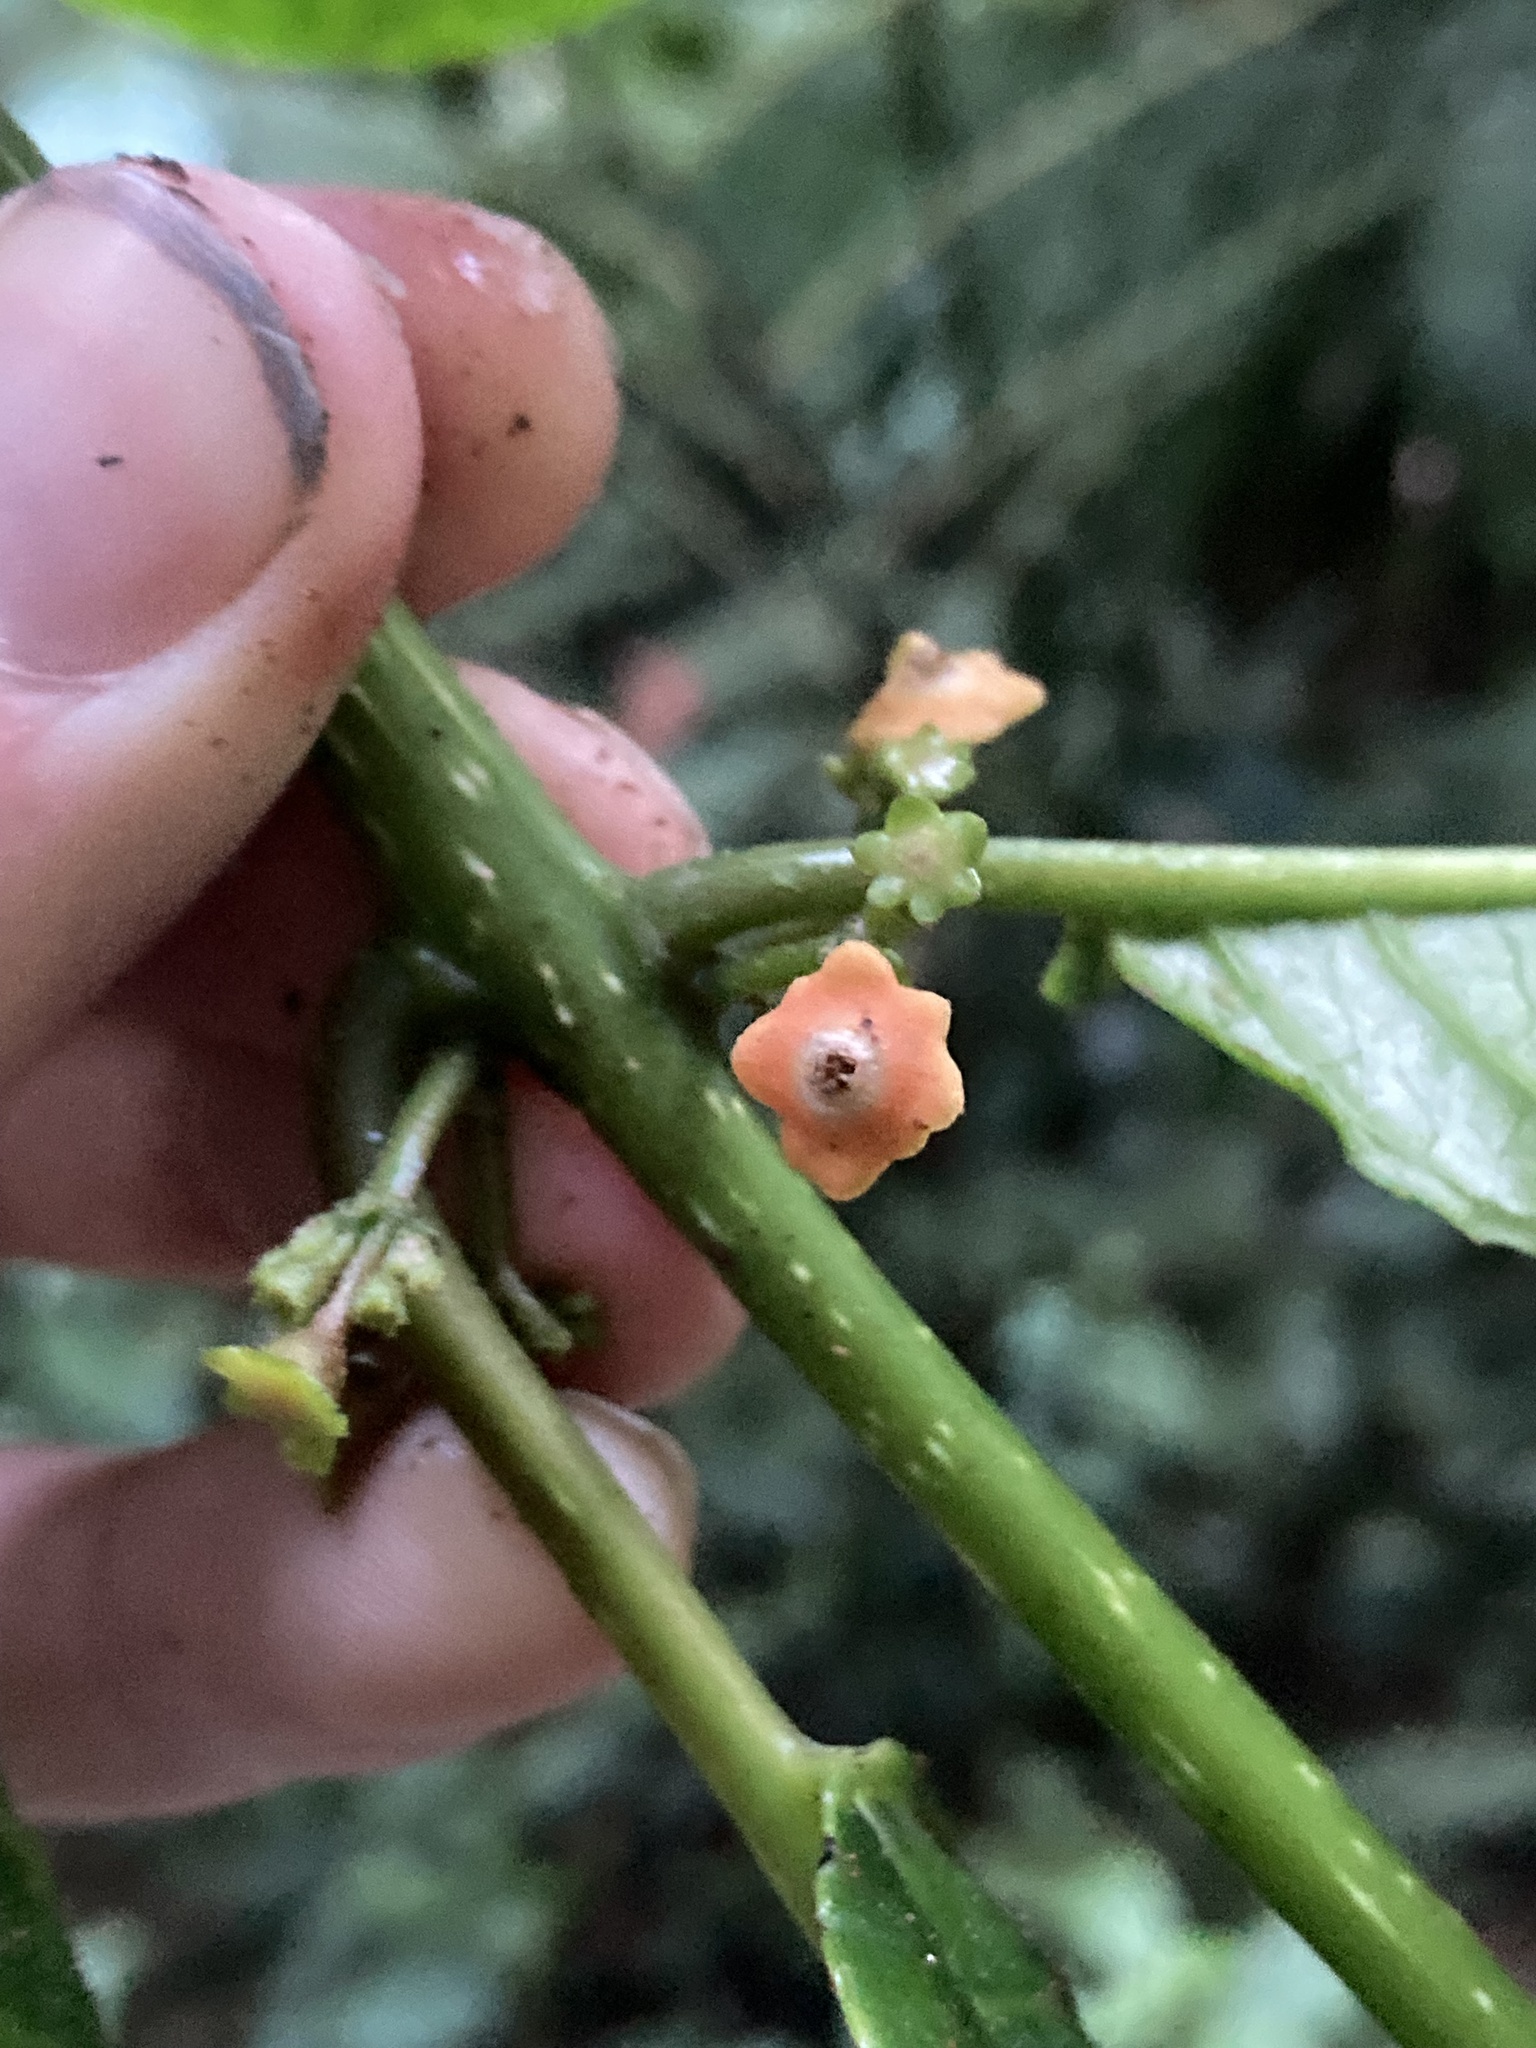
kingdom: Plantae
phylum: Tracheophyta
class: Magnoliopsida
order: Laurales
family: Siparunaceae
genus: Siparuna
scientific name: Siparuna thecaphora
